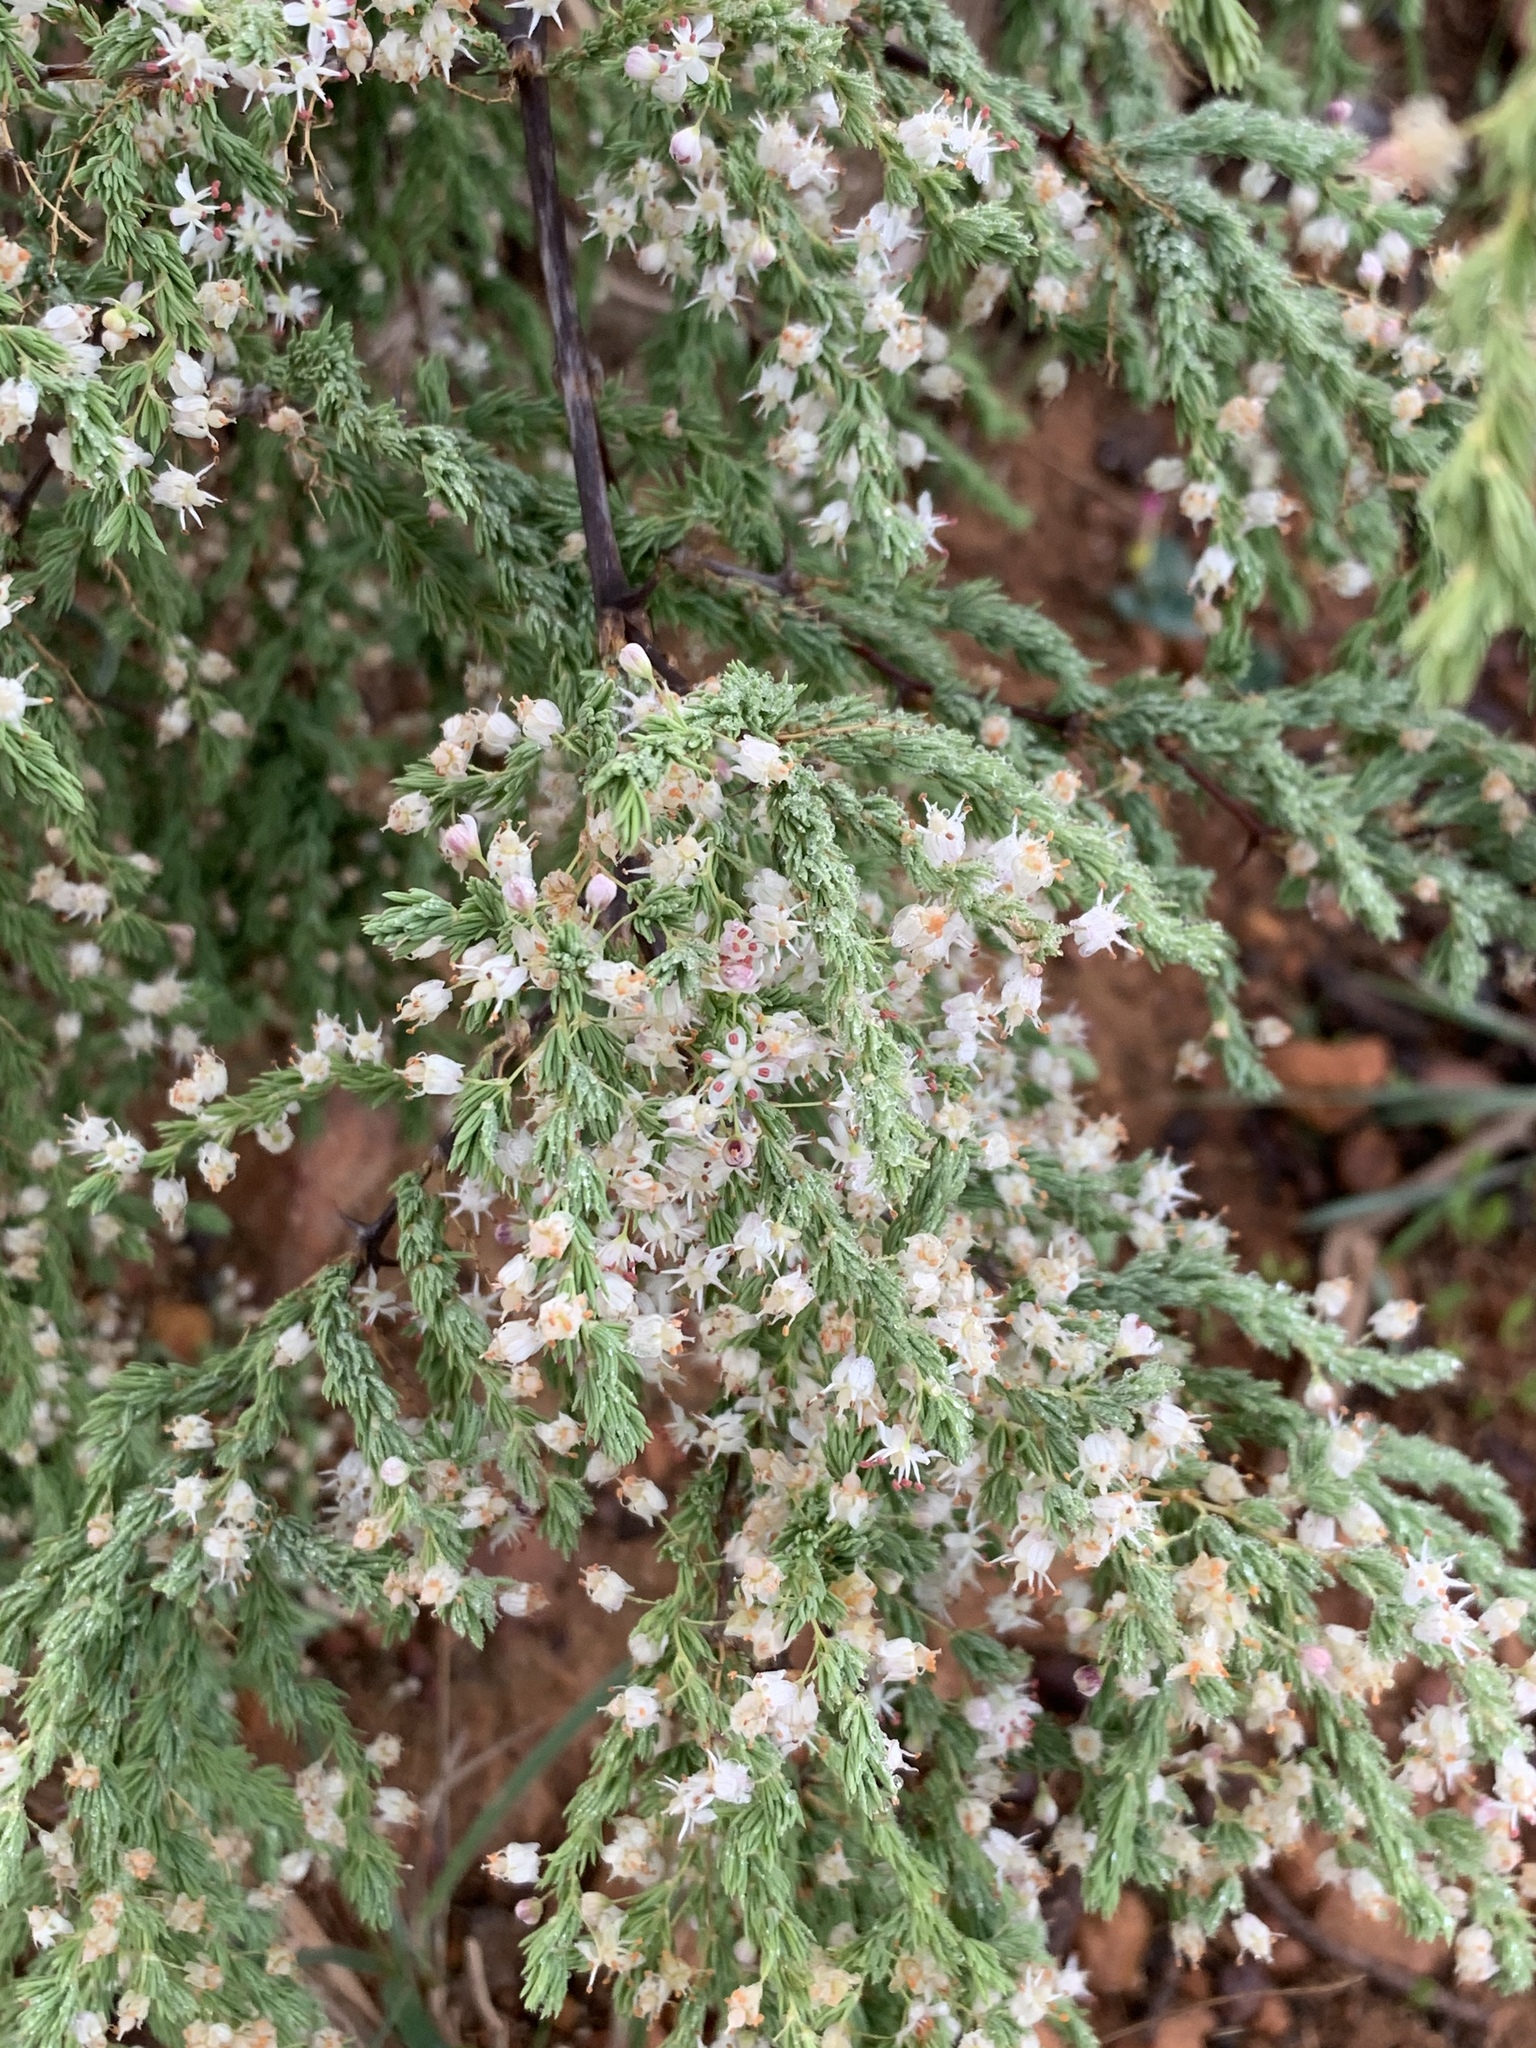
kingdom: Plantae
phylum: Tracheophyta
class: Liliopsida
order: Asparagales
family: Asparagaceae
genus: Asparagus
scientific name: Asparagus rubicundus
